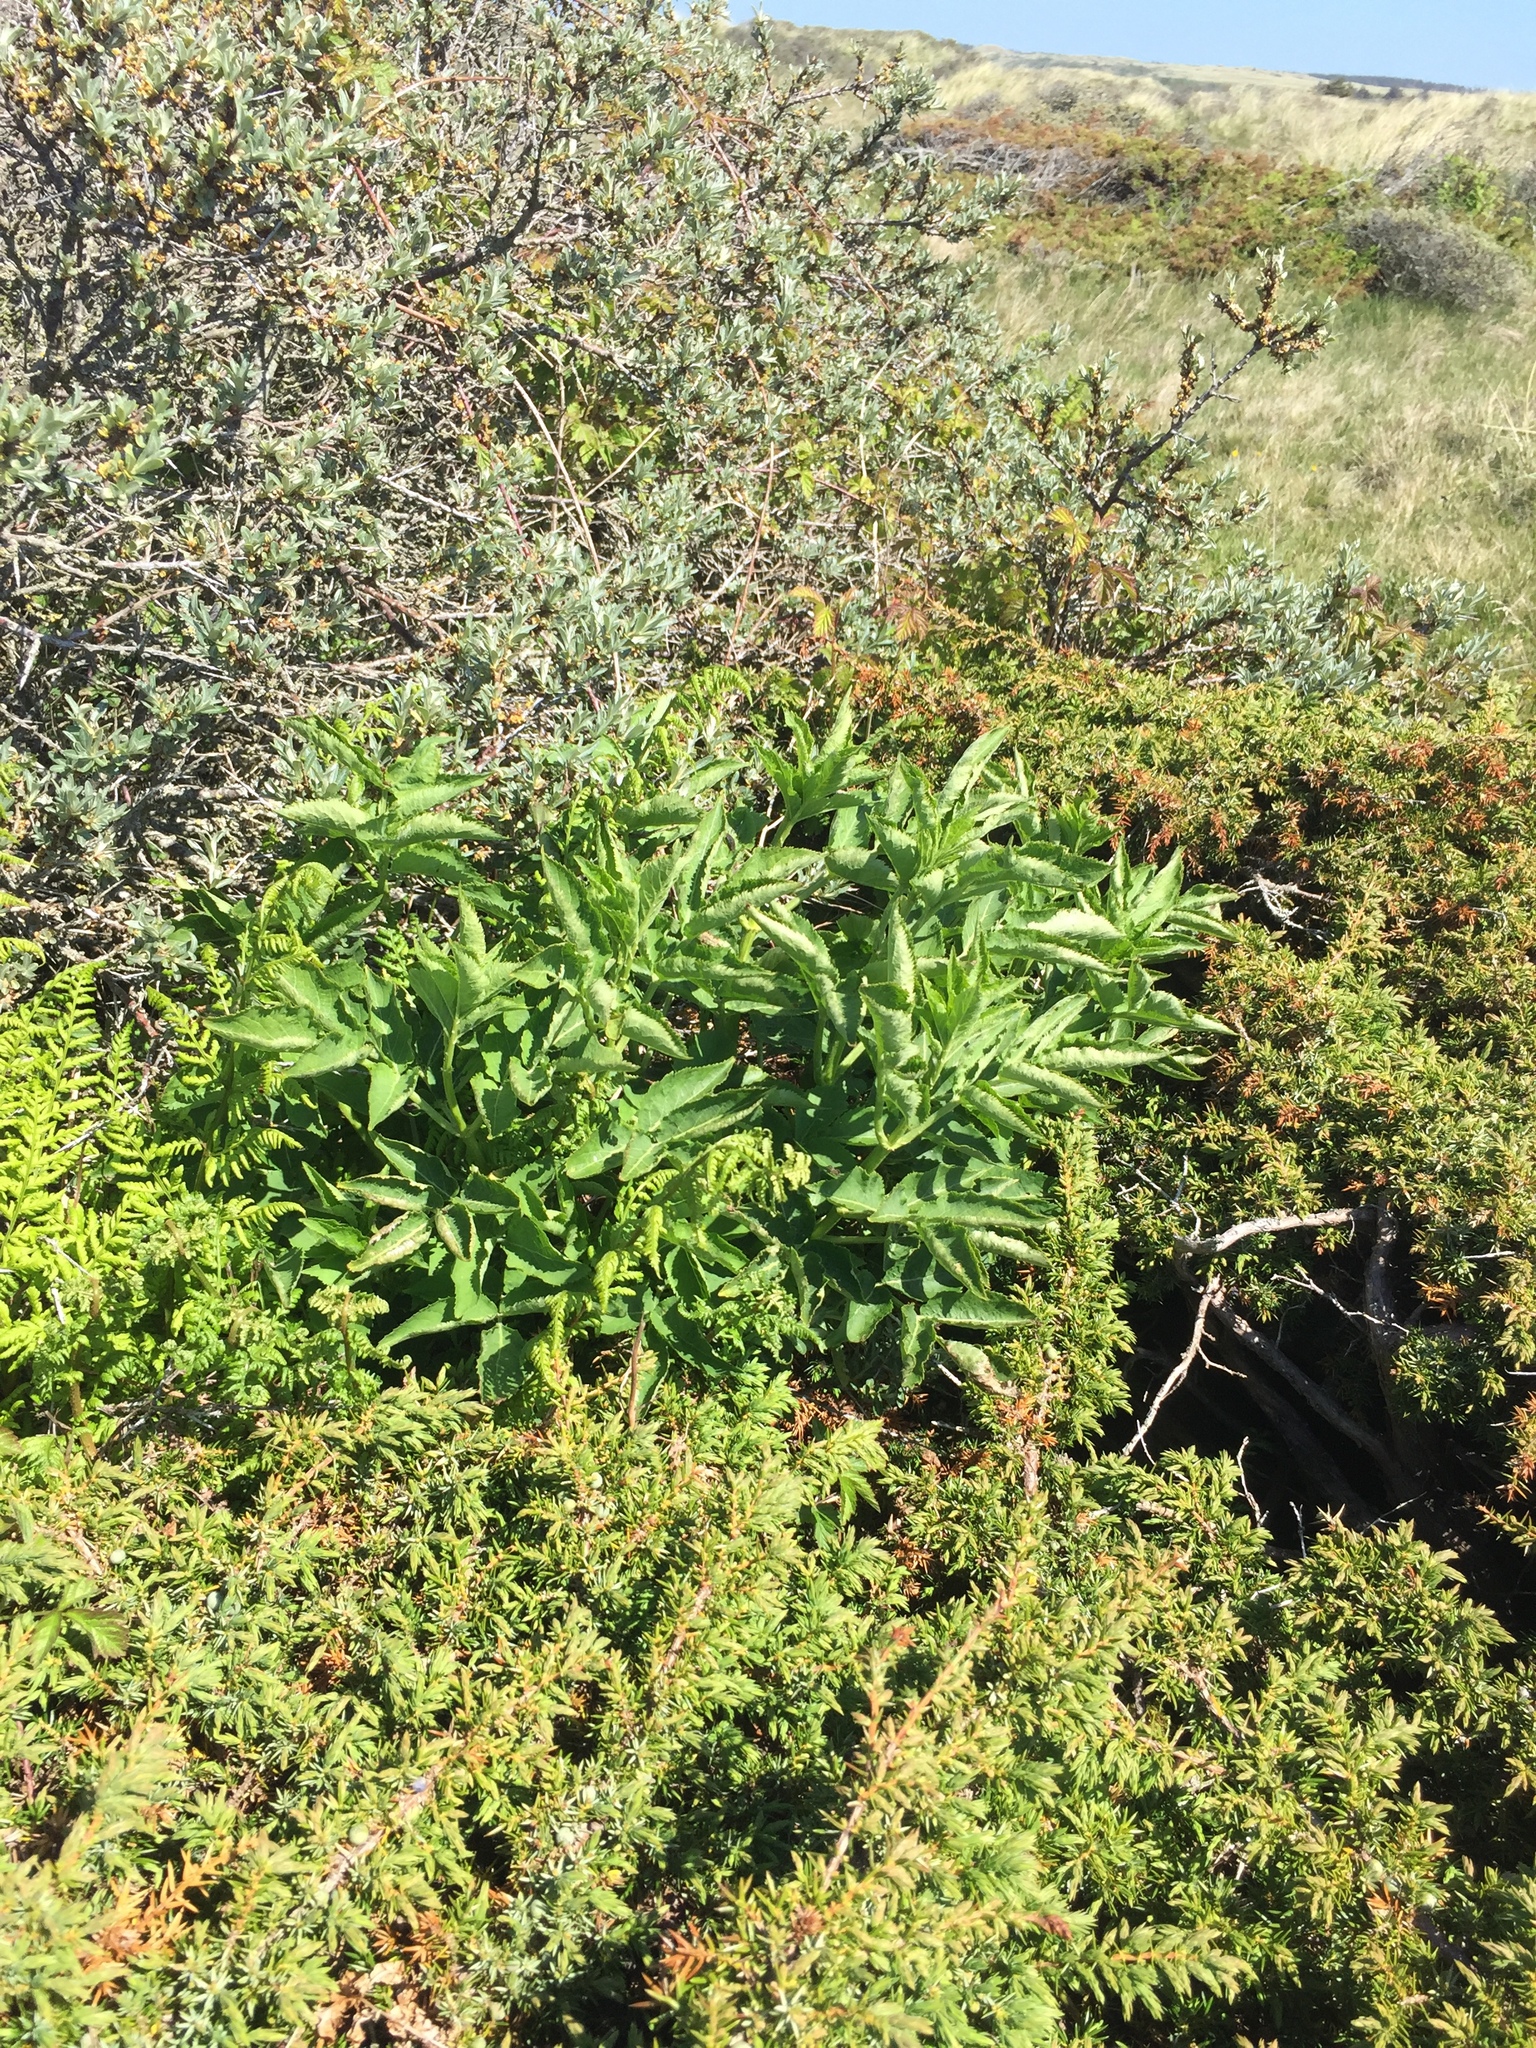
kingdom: Plantae
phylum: Tracheophyta
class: Magnoliopsida
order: Dipsacales
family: Viburnaceae
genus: Sambucus
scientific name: Sambucus nigra
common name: Elder
